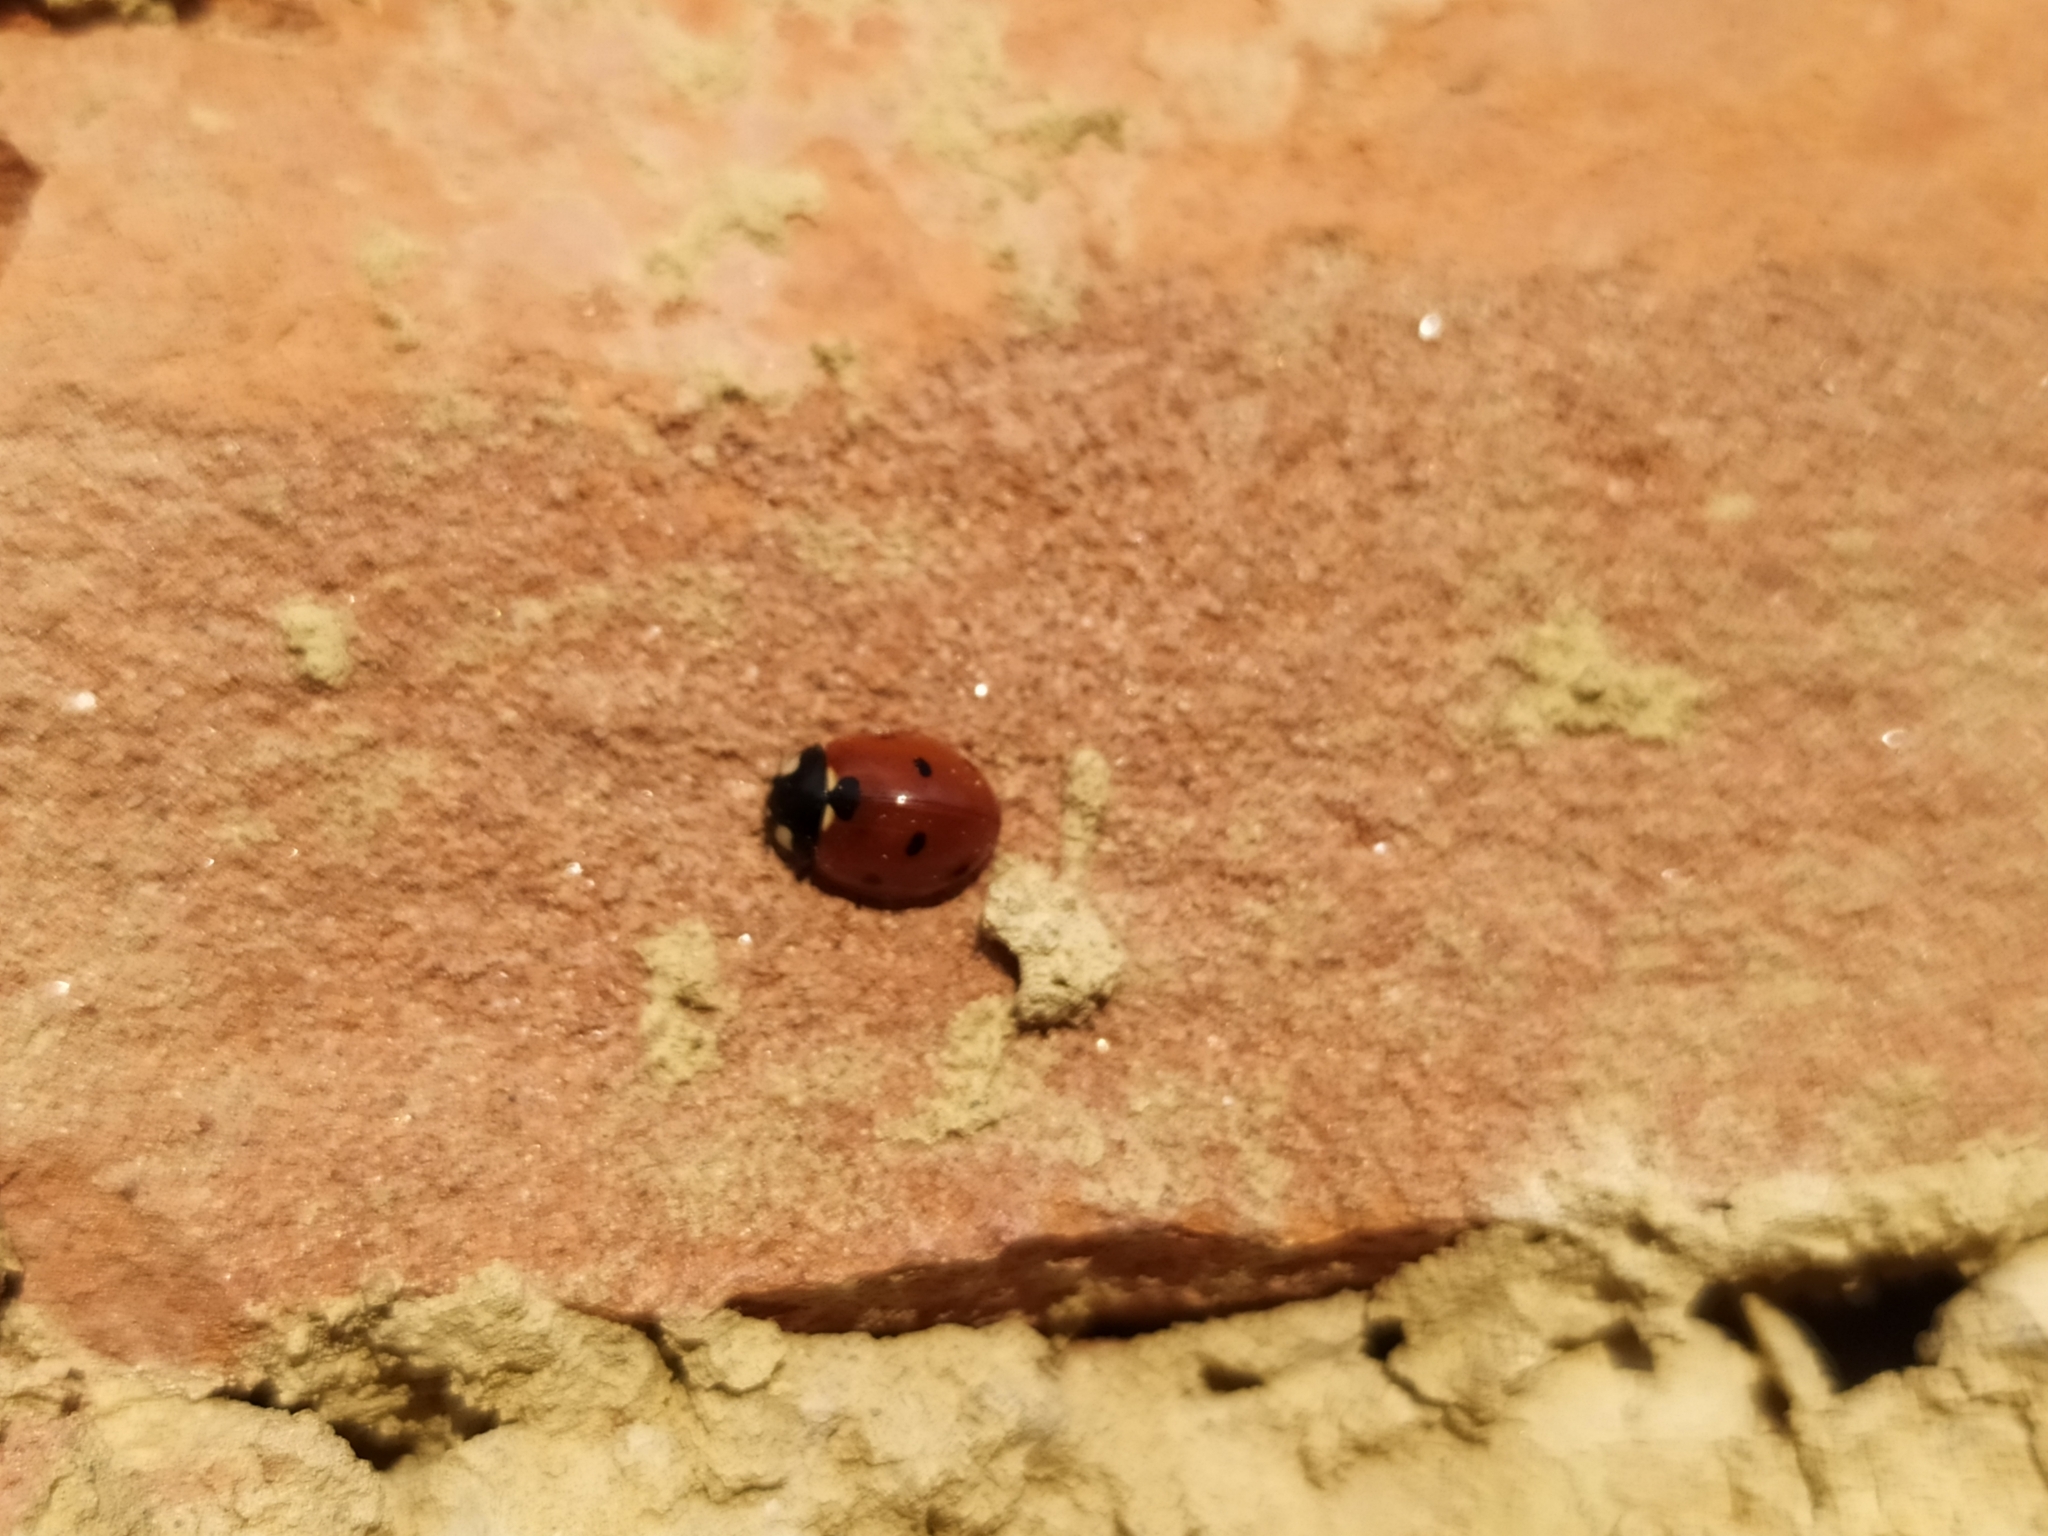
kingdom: Animalia
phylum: Arthropoda
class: Insecta
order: Coleoptera
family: Coccinellidae
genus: Coccinella
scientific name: Coccinella septempunctata
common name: Sevenspotted lady beetle
